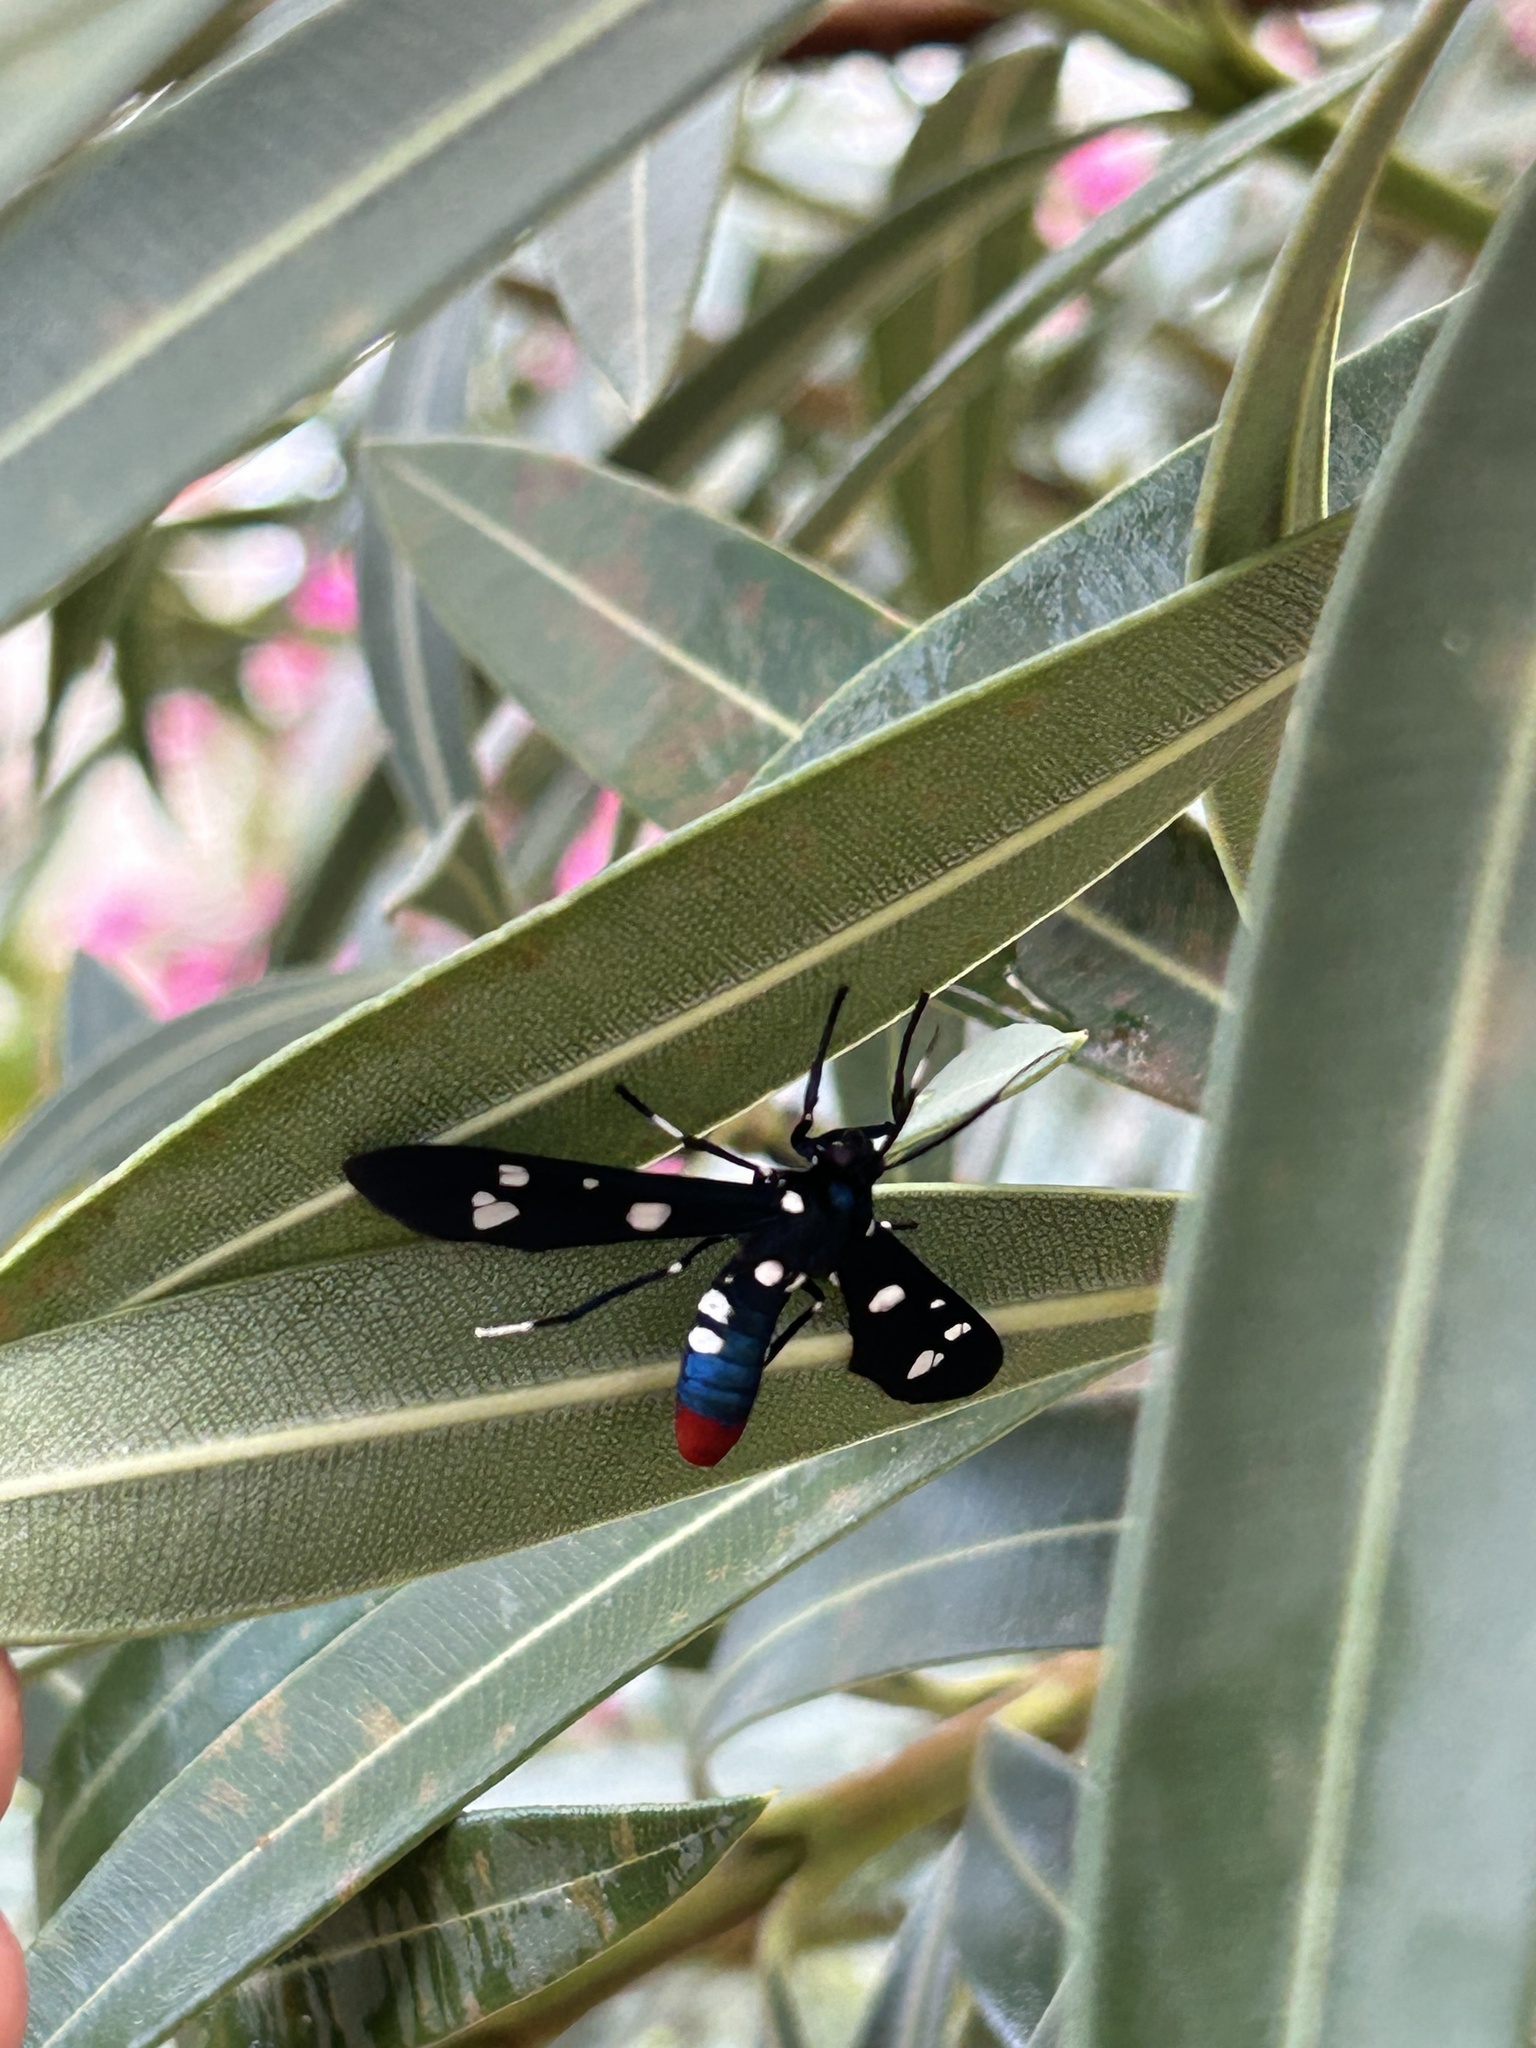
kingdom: Animalia
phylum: Arthropoda
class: Insecta
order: Lepidoptera
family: Erebidae
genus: Syntomeida
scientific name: Syntomeida epilais
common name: Polka-dot wasp moth
